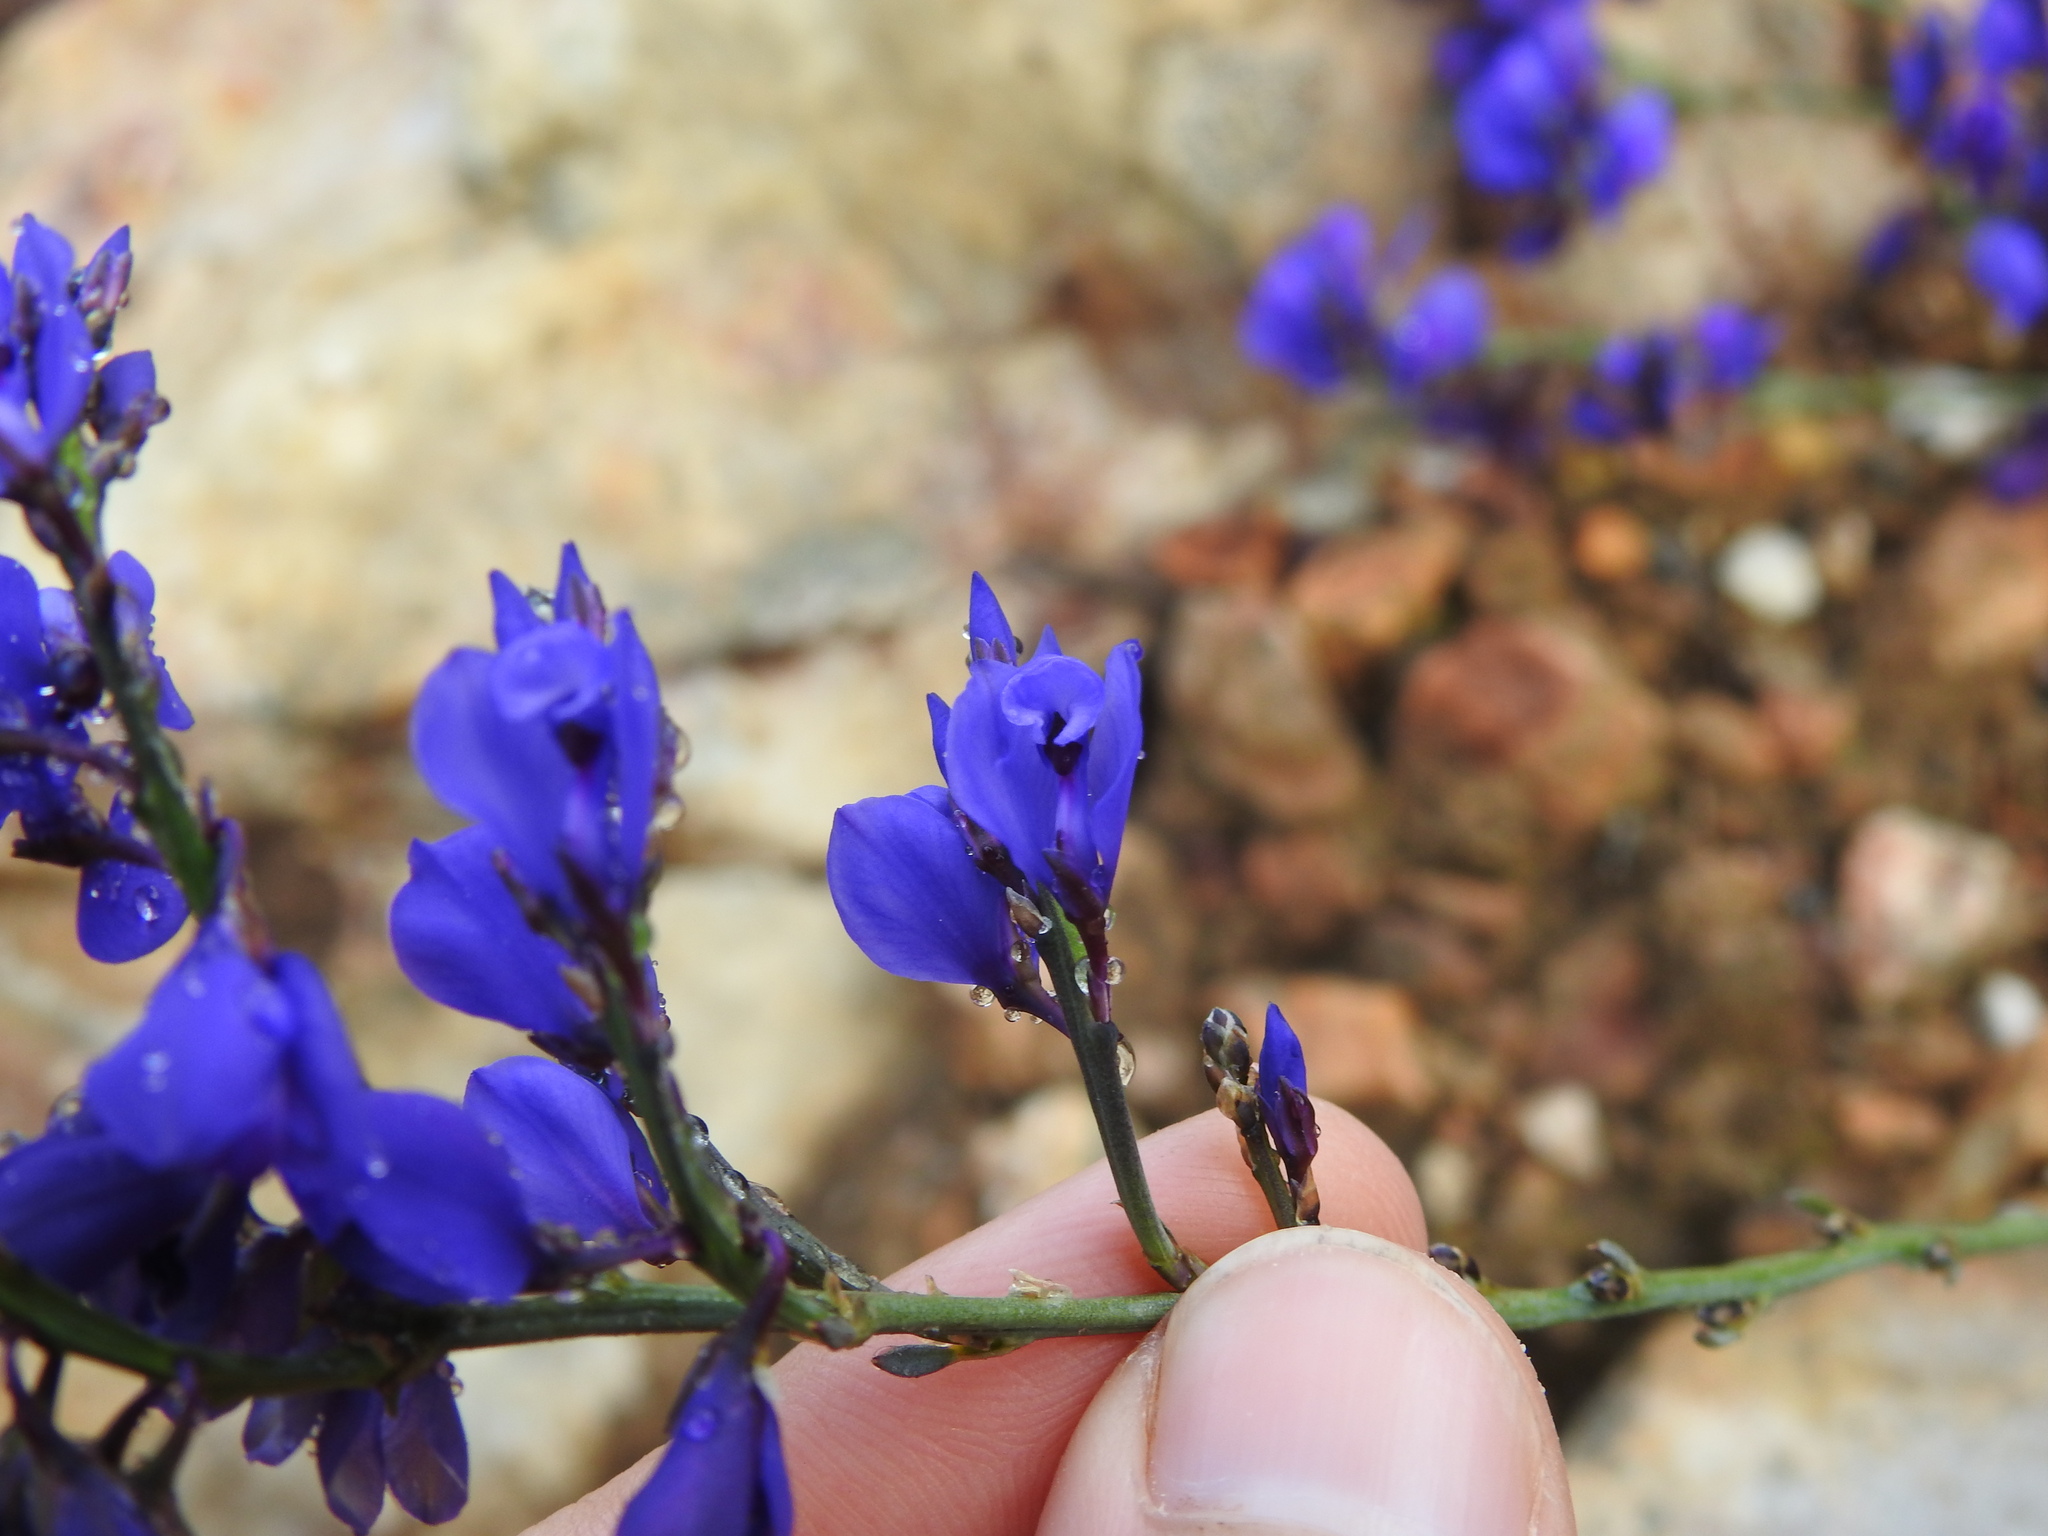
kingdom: Plantae
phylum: Tracheophyta
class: Magnoliopsida
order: Fabales
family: Polygalaceae
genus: Polygala
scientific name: Polygala microphylla
